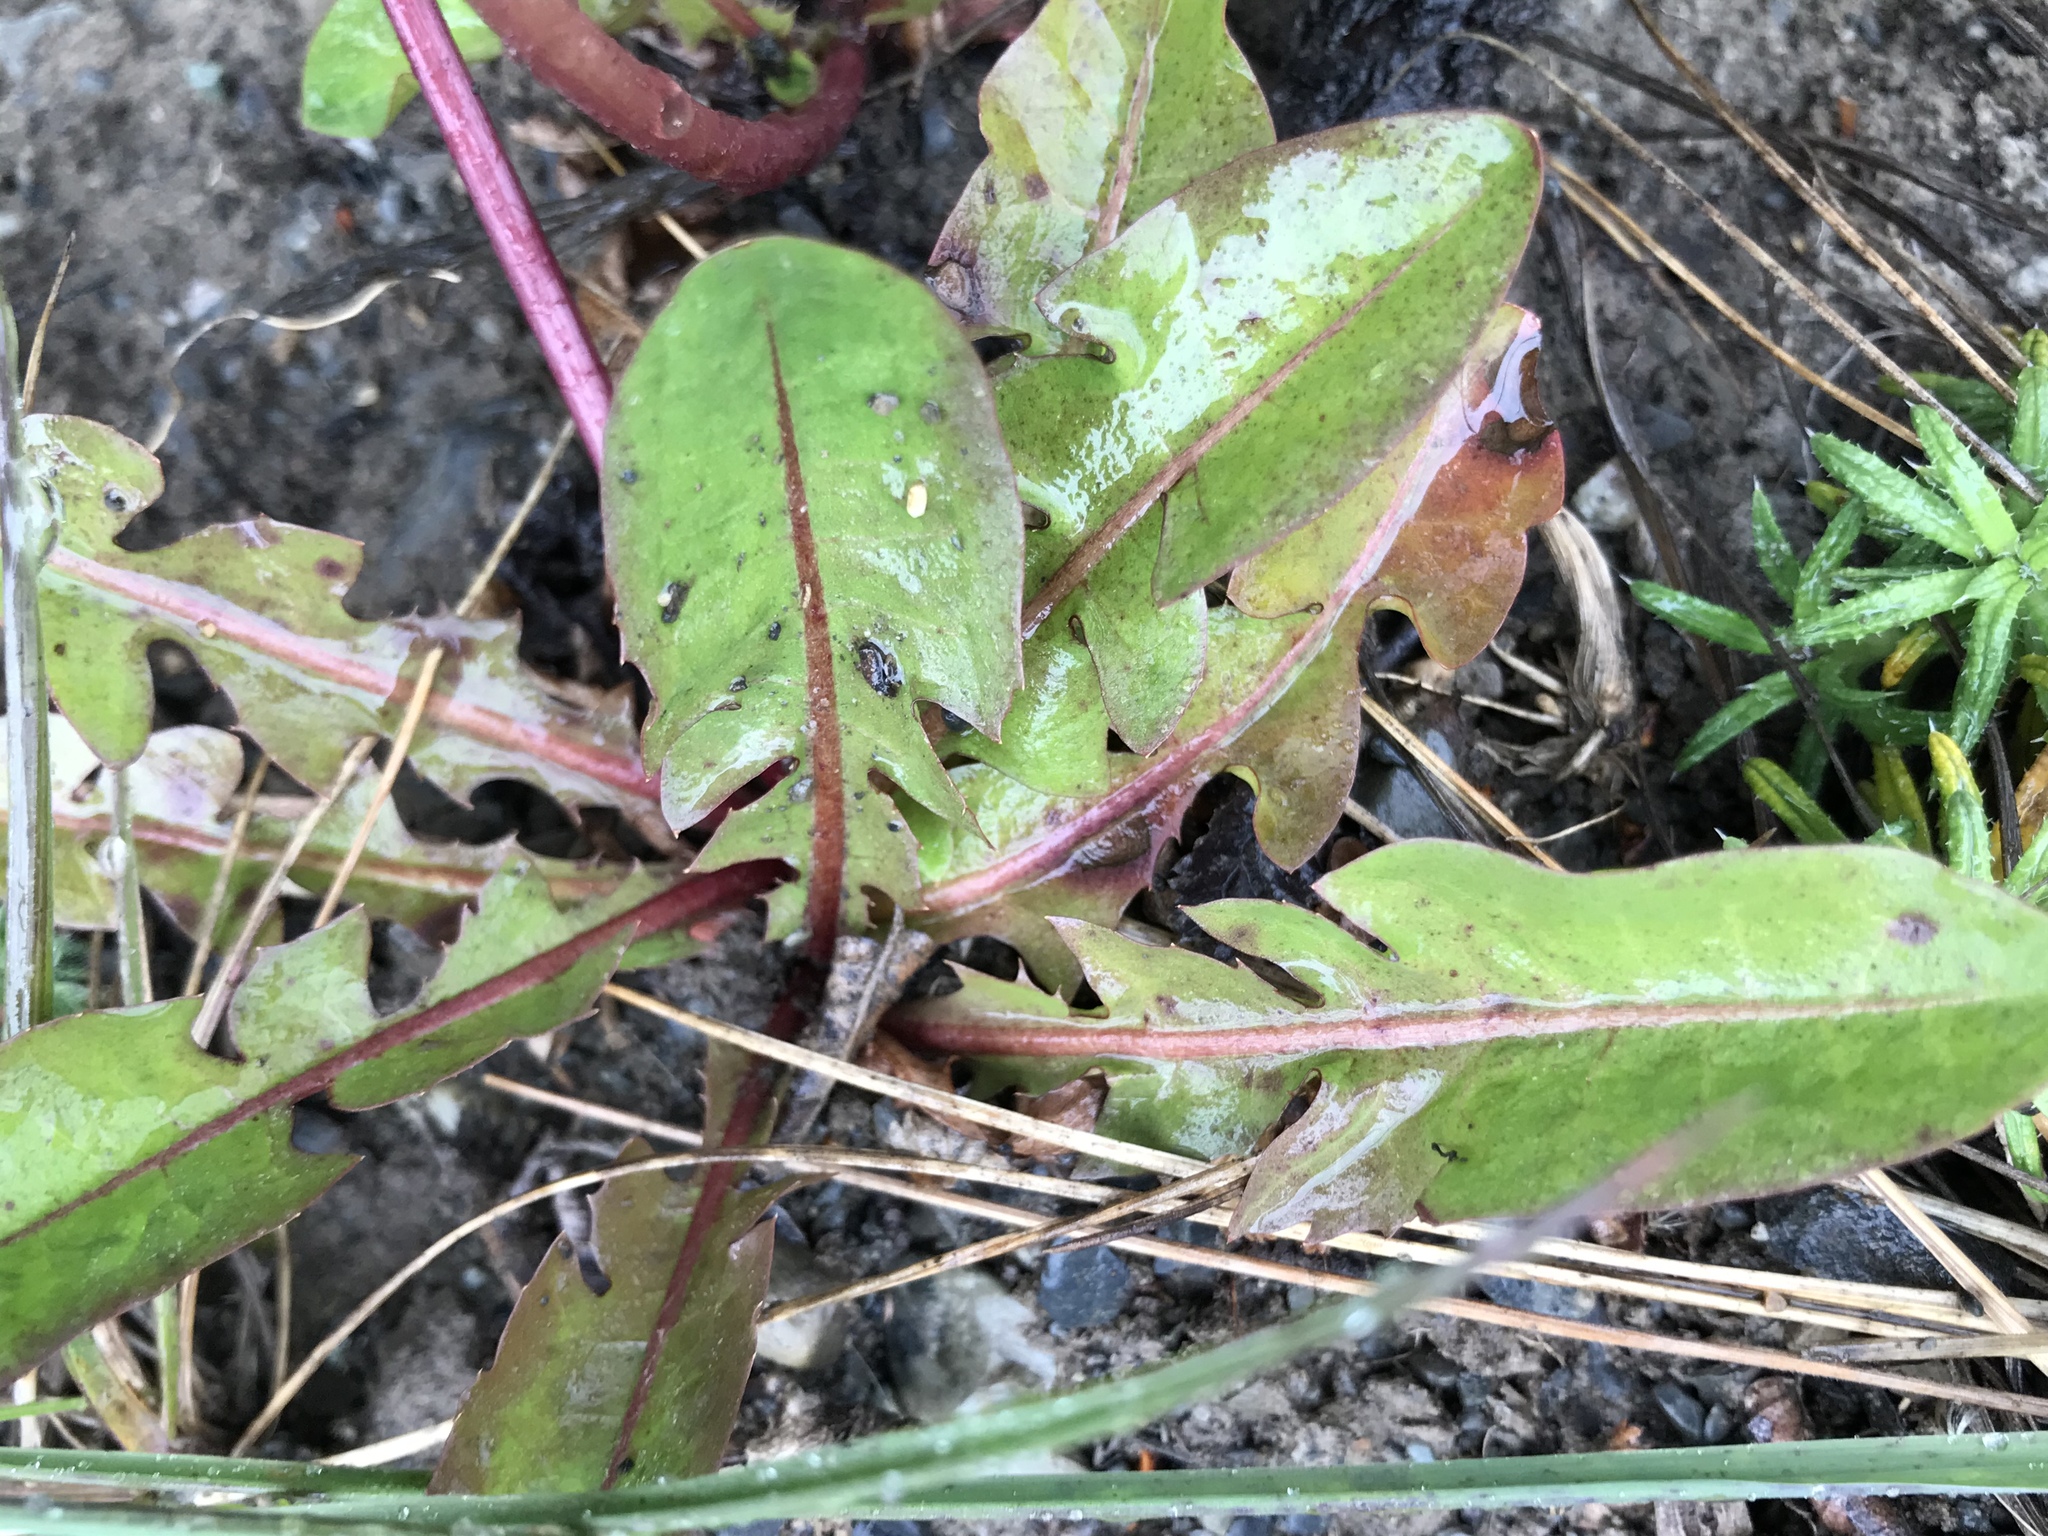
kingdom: Plantae
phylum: Tracheophyta
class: Magnoliopsida
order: Asterales
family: Asteraceae
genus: Taraxacum
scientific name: Taraxacum officinale
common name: Common dandelion
